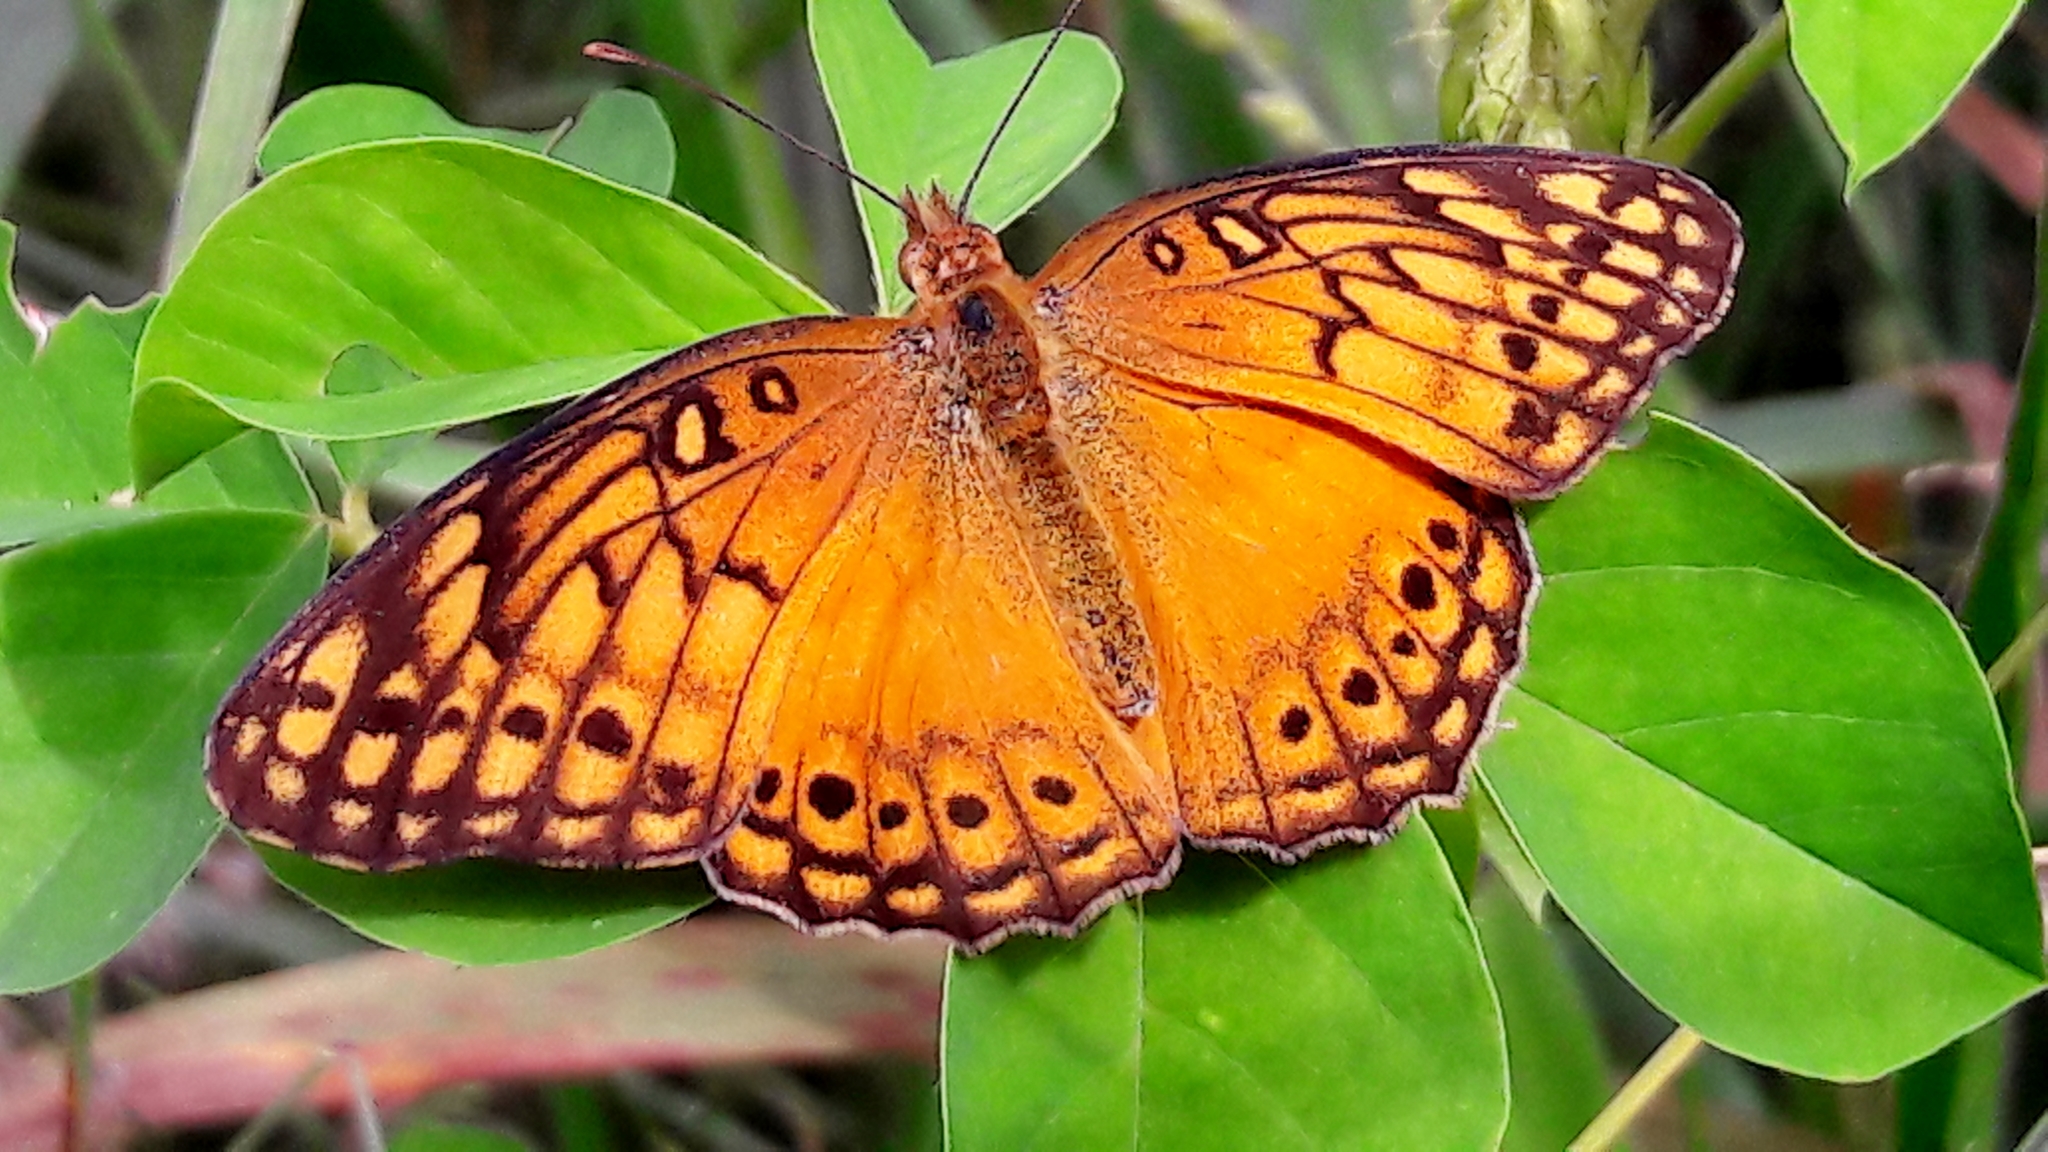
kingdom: Animalia
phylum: Arthropoda
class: Insecta
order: Lepidoptera
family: Nymphalidae
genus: Euptoieta
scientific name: Euptoieta hegesia
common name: Mexican fritillary
